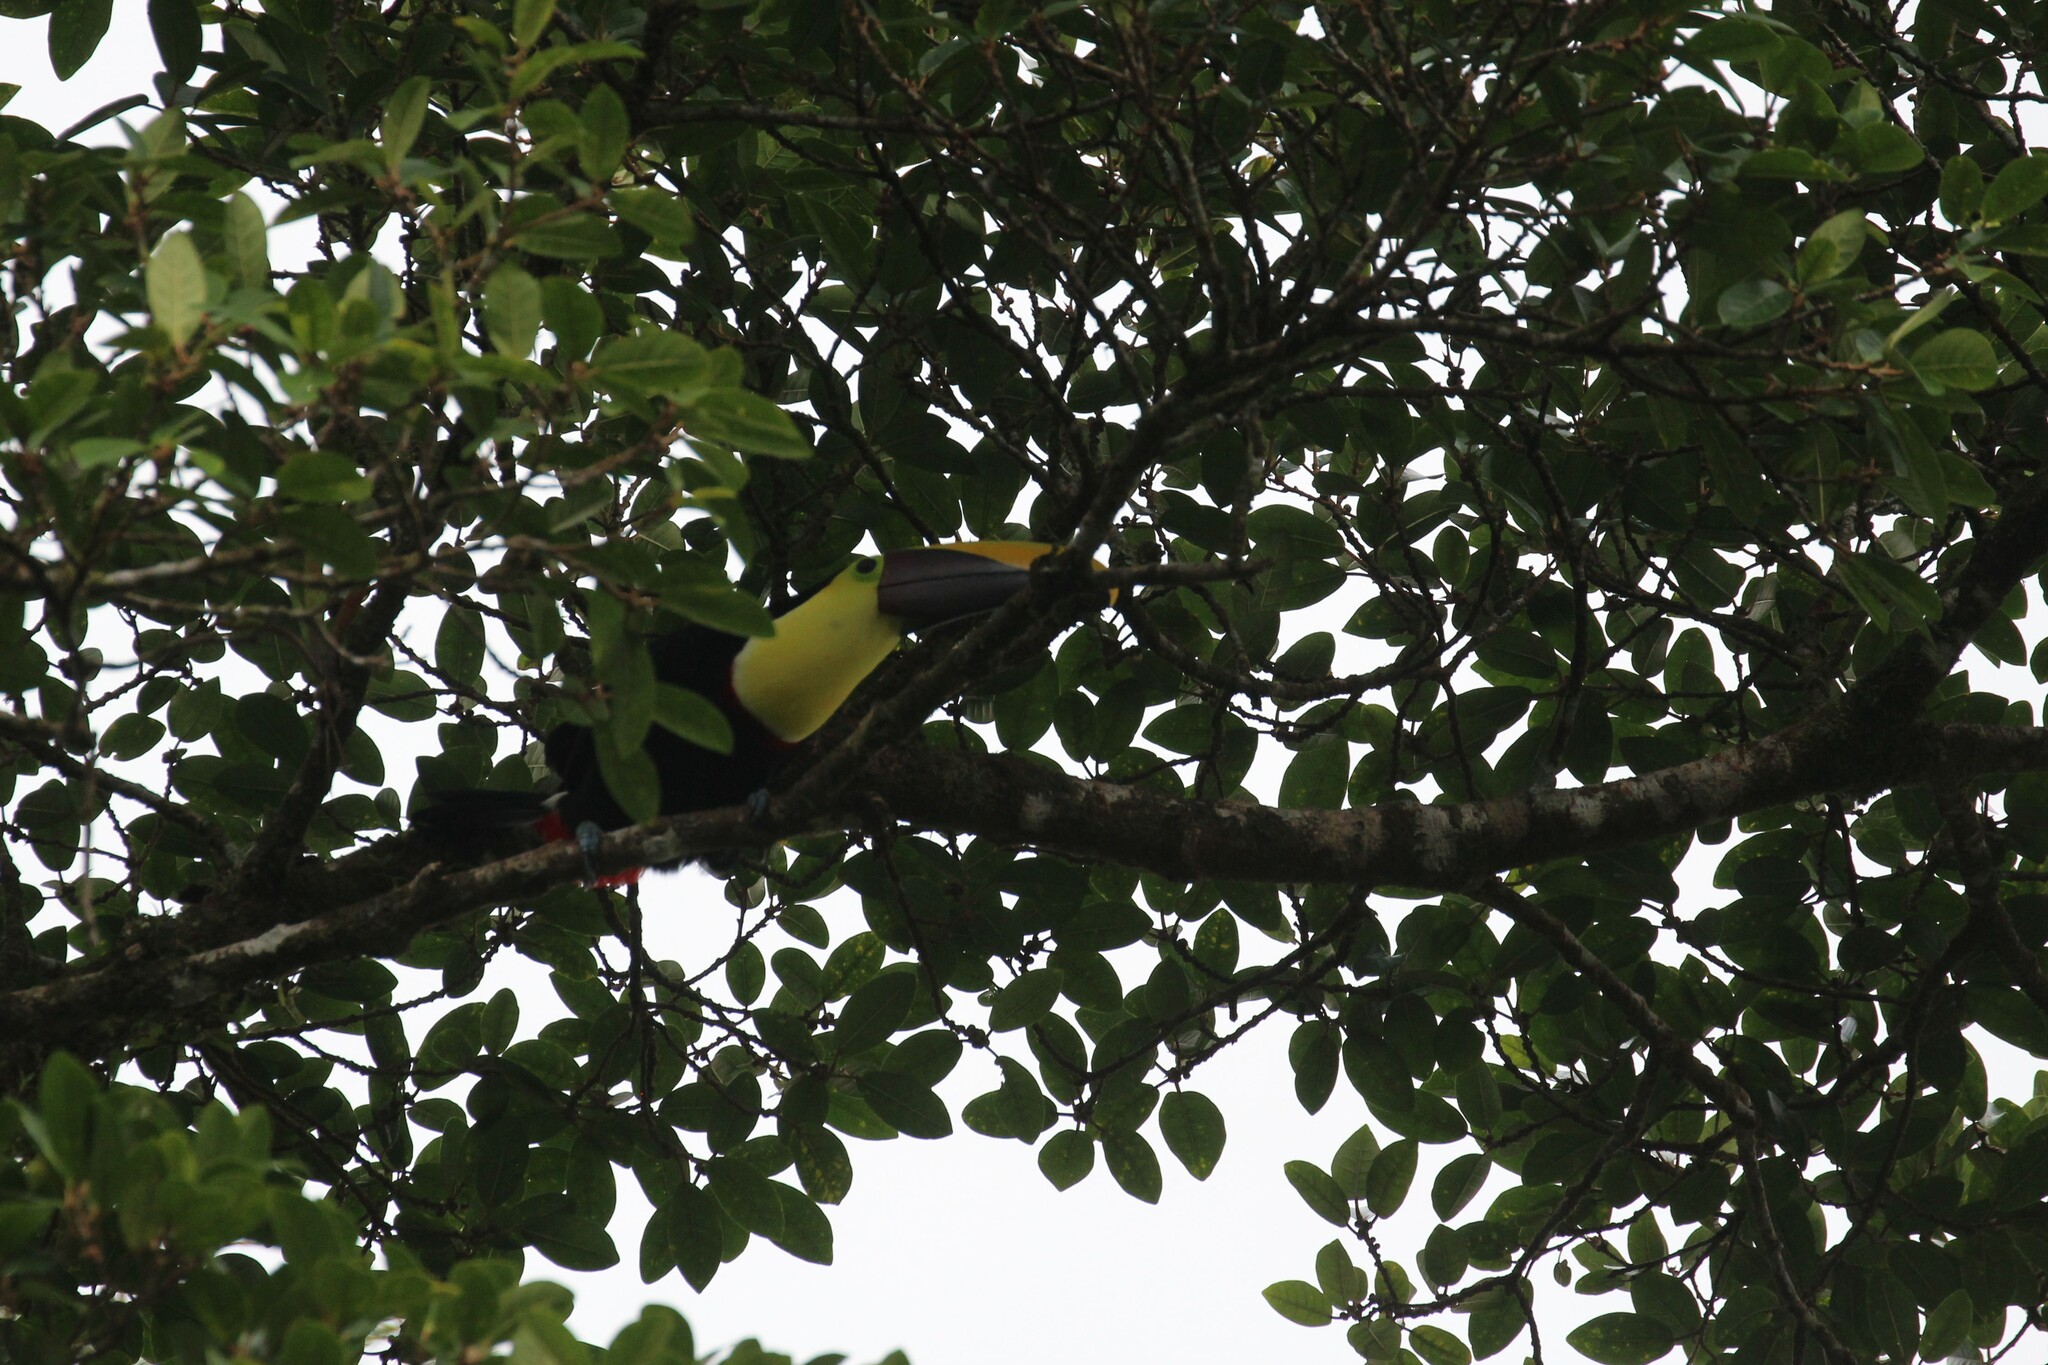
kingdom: Animalia
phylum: Chordata
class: Aves
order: Piciformes
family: Ramphastidae
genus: Ramphastos
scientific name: Ramphastos ambiguus
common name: Yellow-throated toucan
